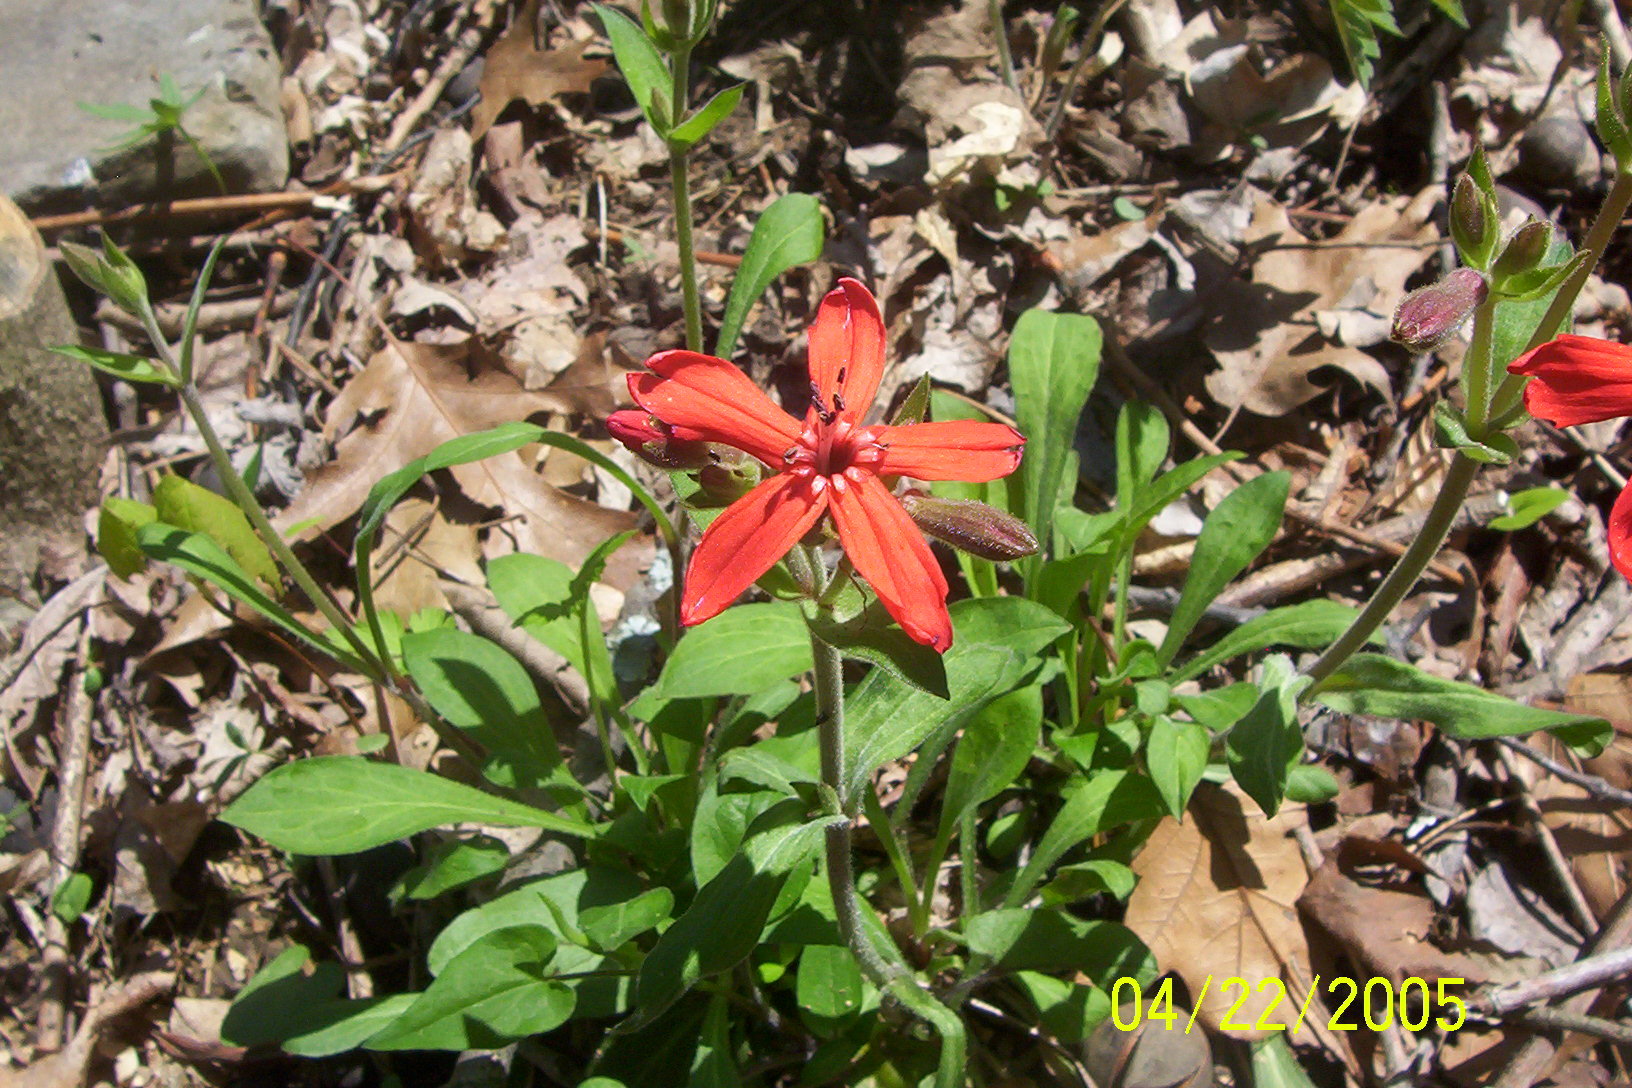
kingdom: Plantae
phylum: Tracheophyta
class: Magnoliopsida
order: Caryophyllales
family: Caryophyllaceae
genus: Silene
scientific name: Silene virginica
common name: Fire-pink
